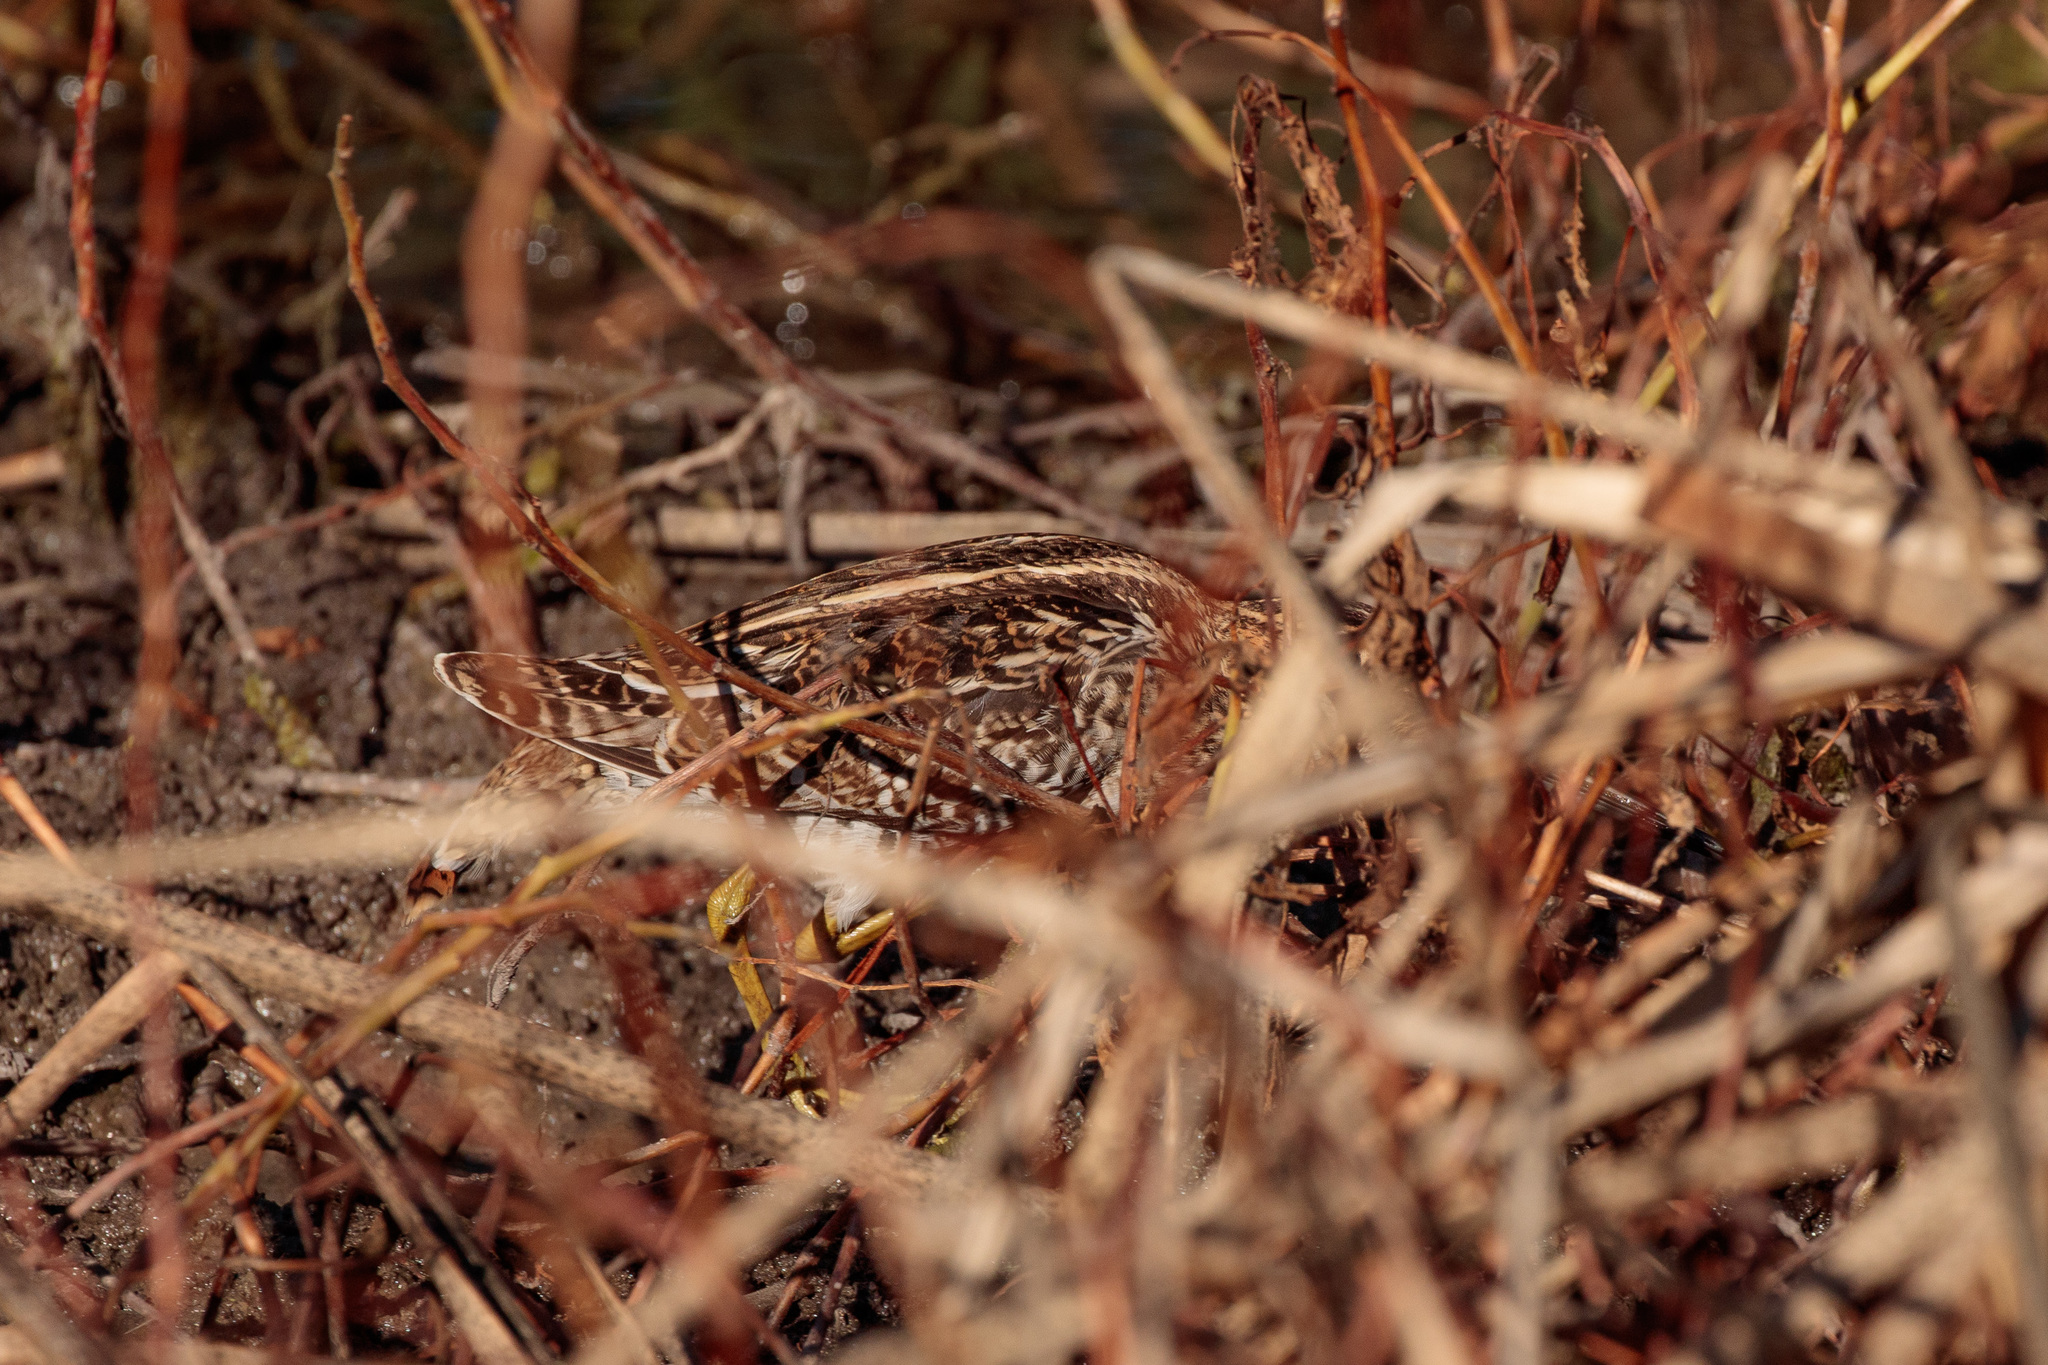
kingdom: Animalia
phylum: Chordata
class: Aves
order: Charadriiformes
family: Scolopacidae
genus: Gallinago
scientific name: Gallinago delicata
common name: Wilson's snipe
